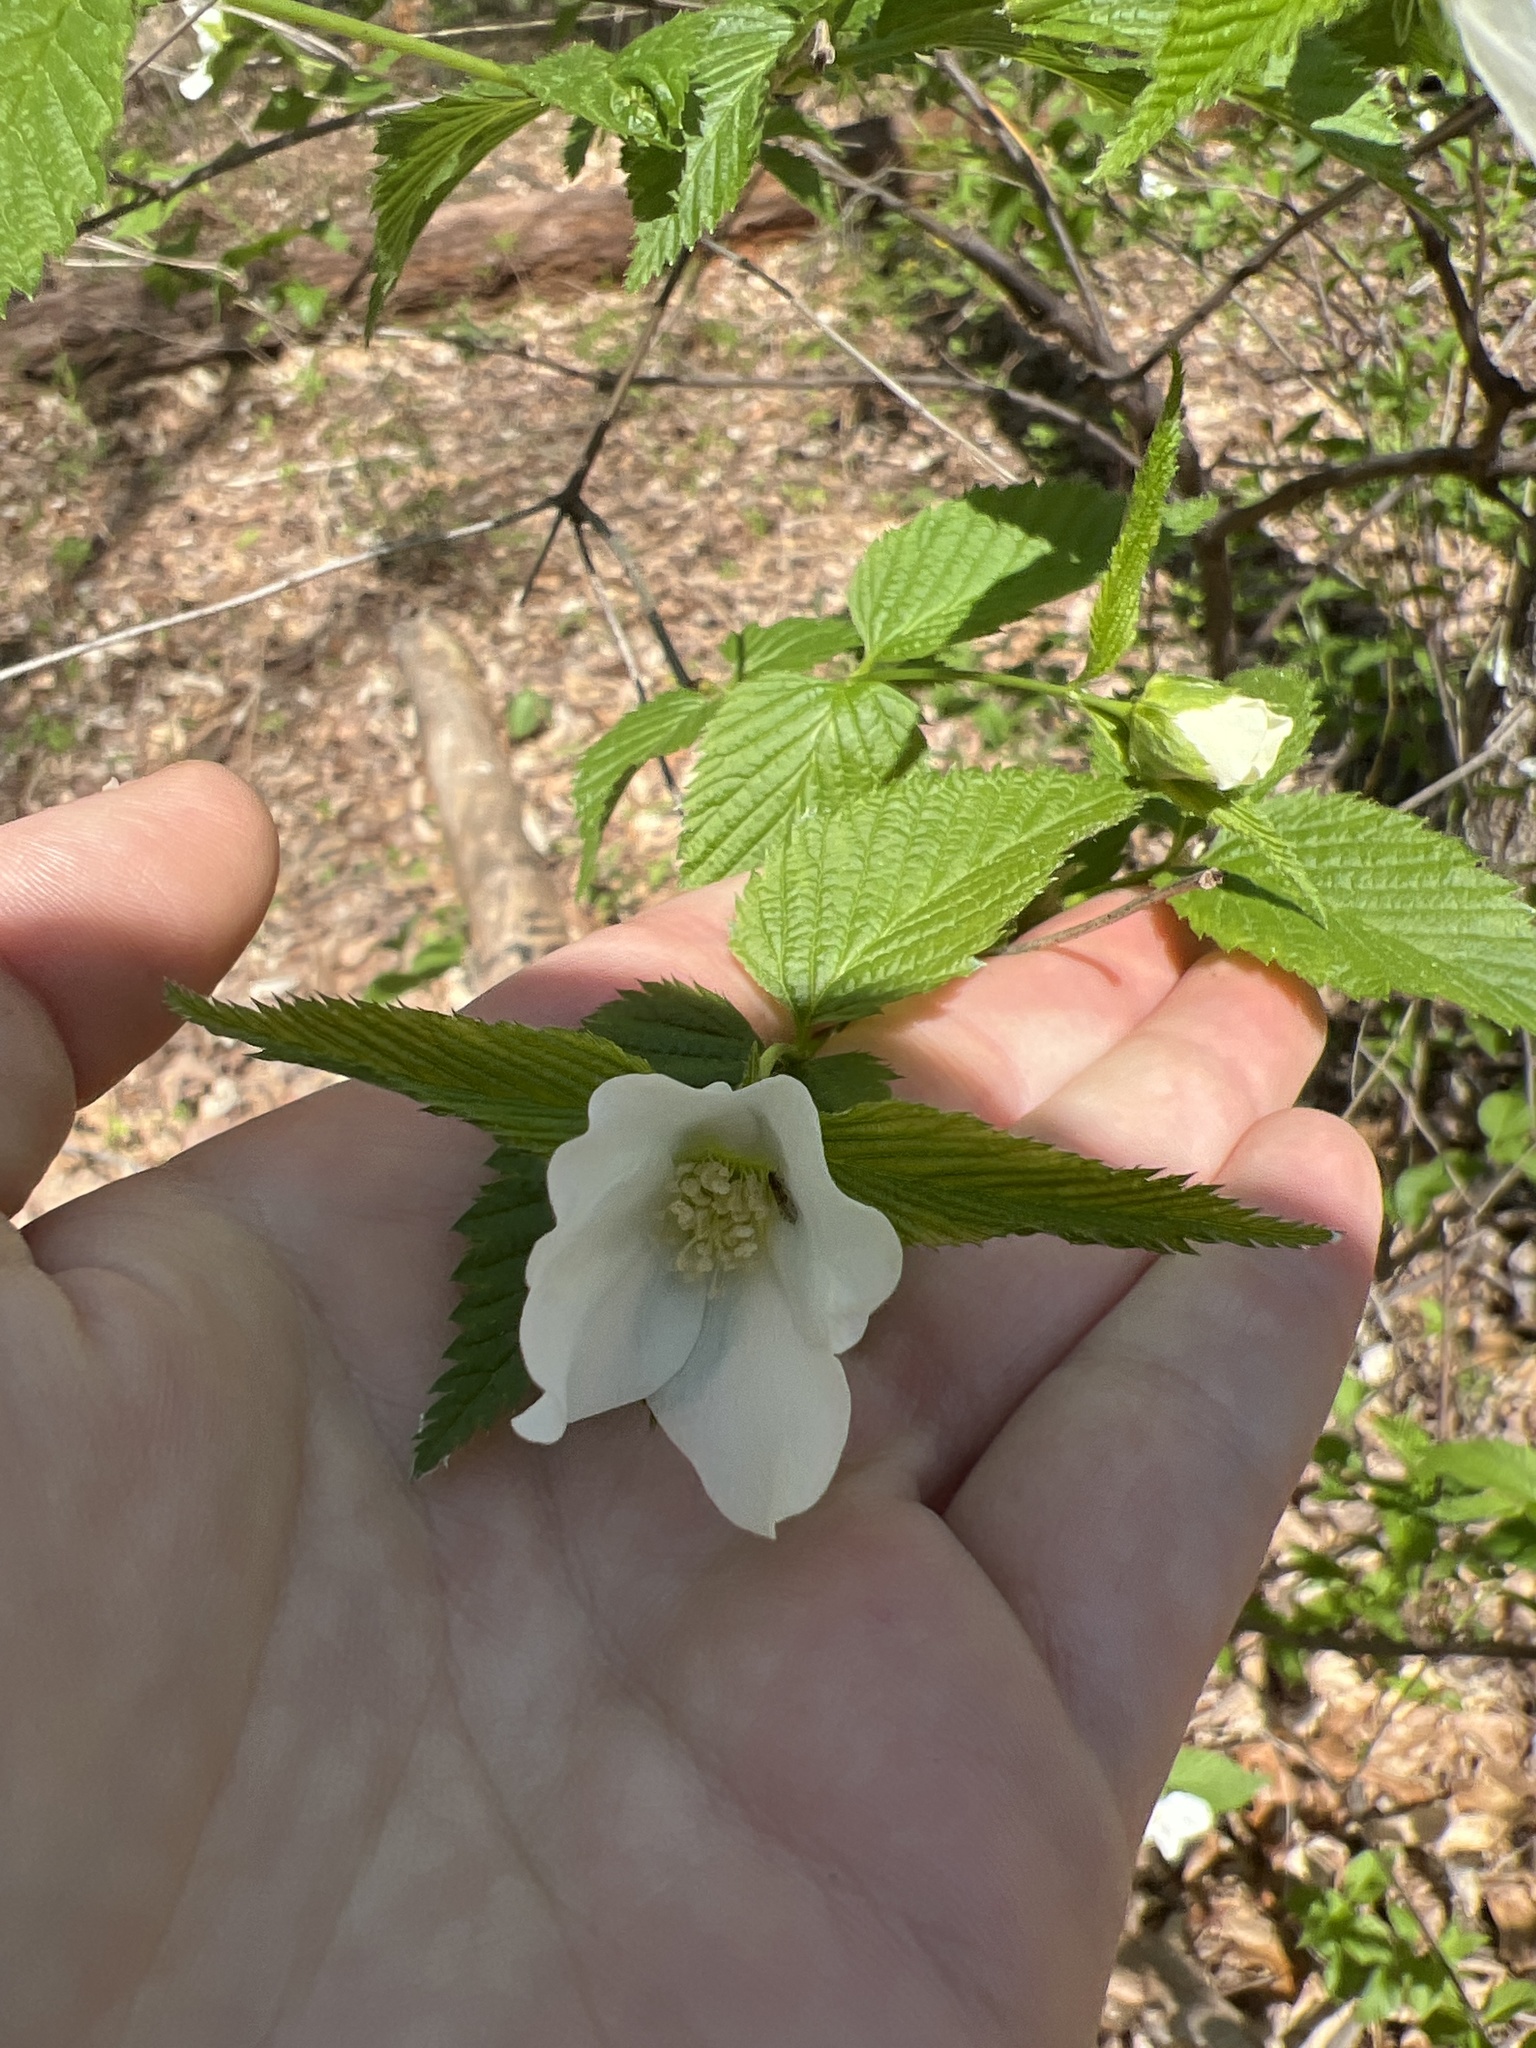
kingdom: Plantae
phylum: Tracheophyta
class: Magnoliopsida
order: Rosales
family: Rosaceae
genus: Rhodotypos
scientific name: Rhodotypos scandens
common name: Jetbead
